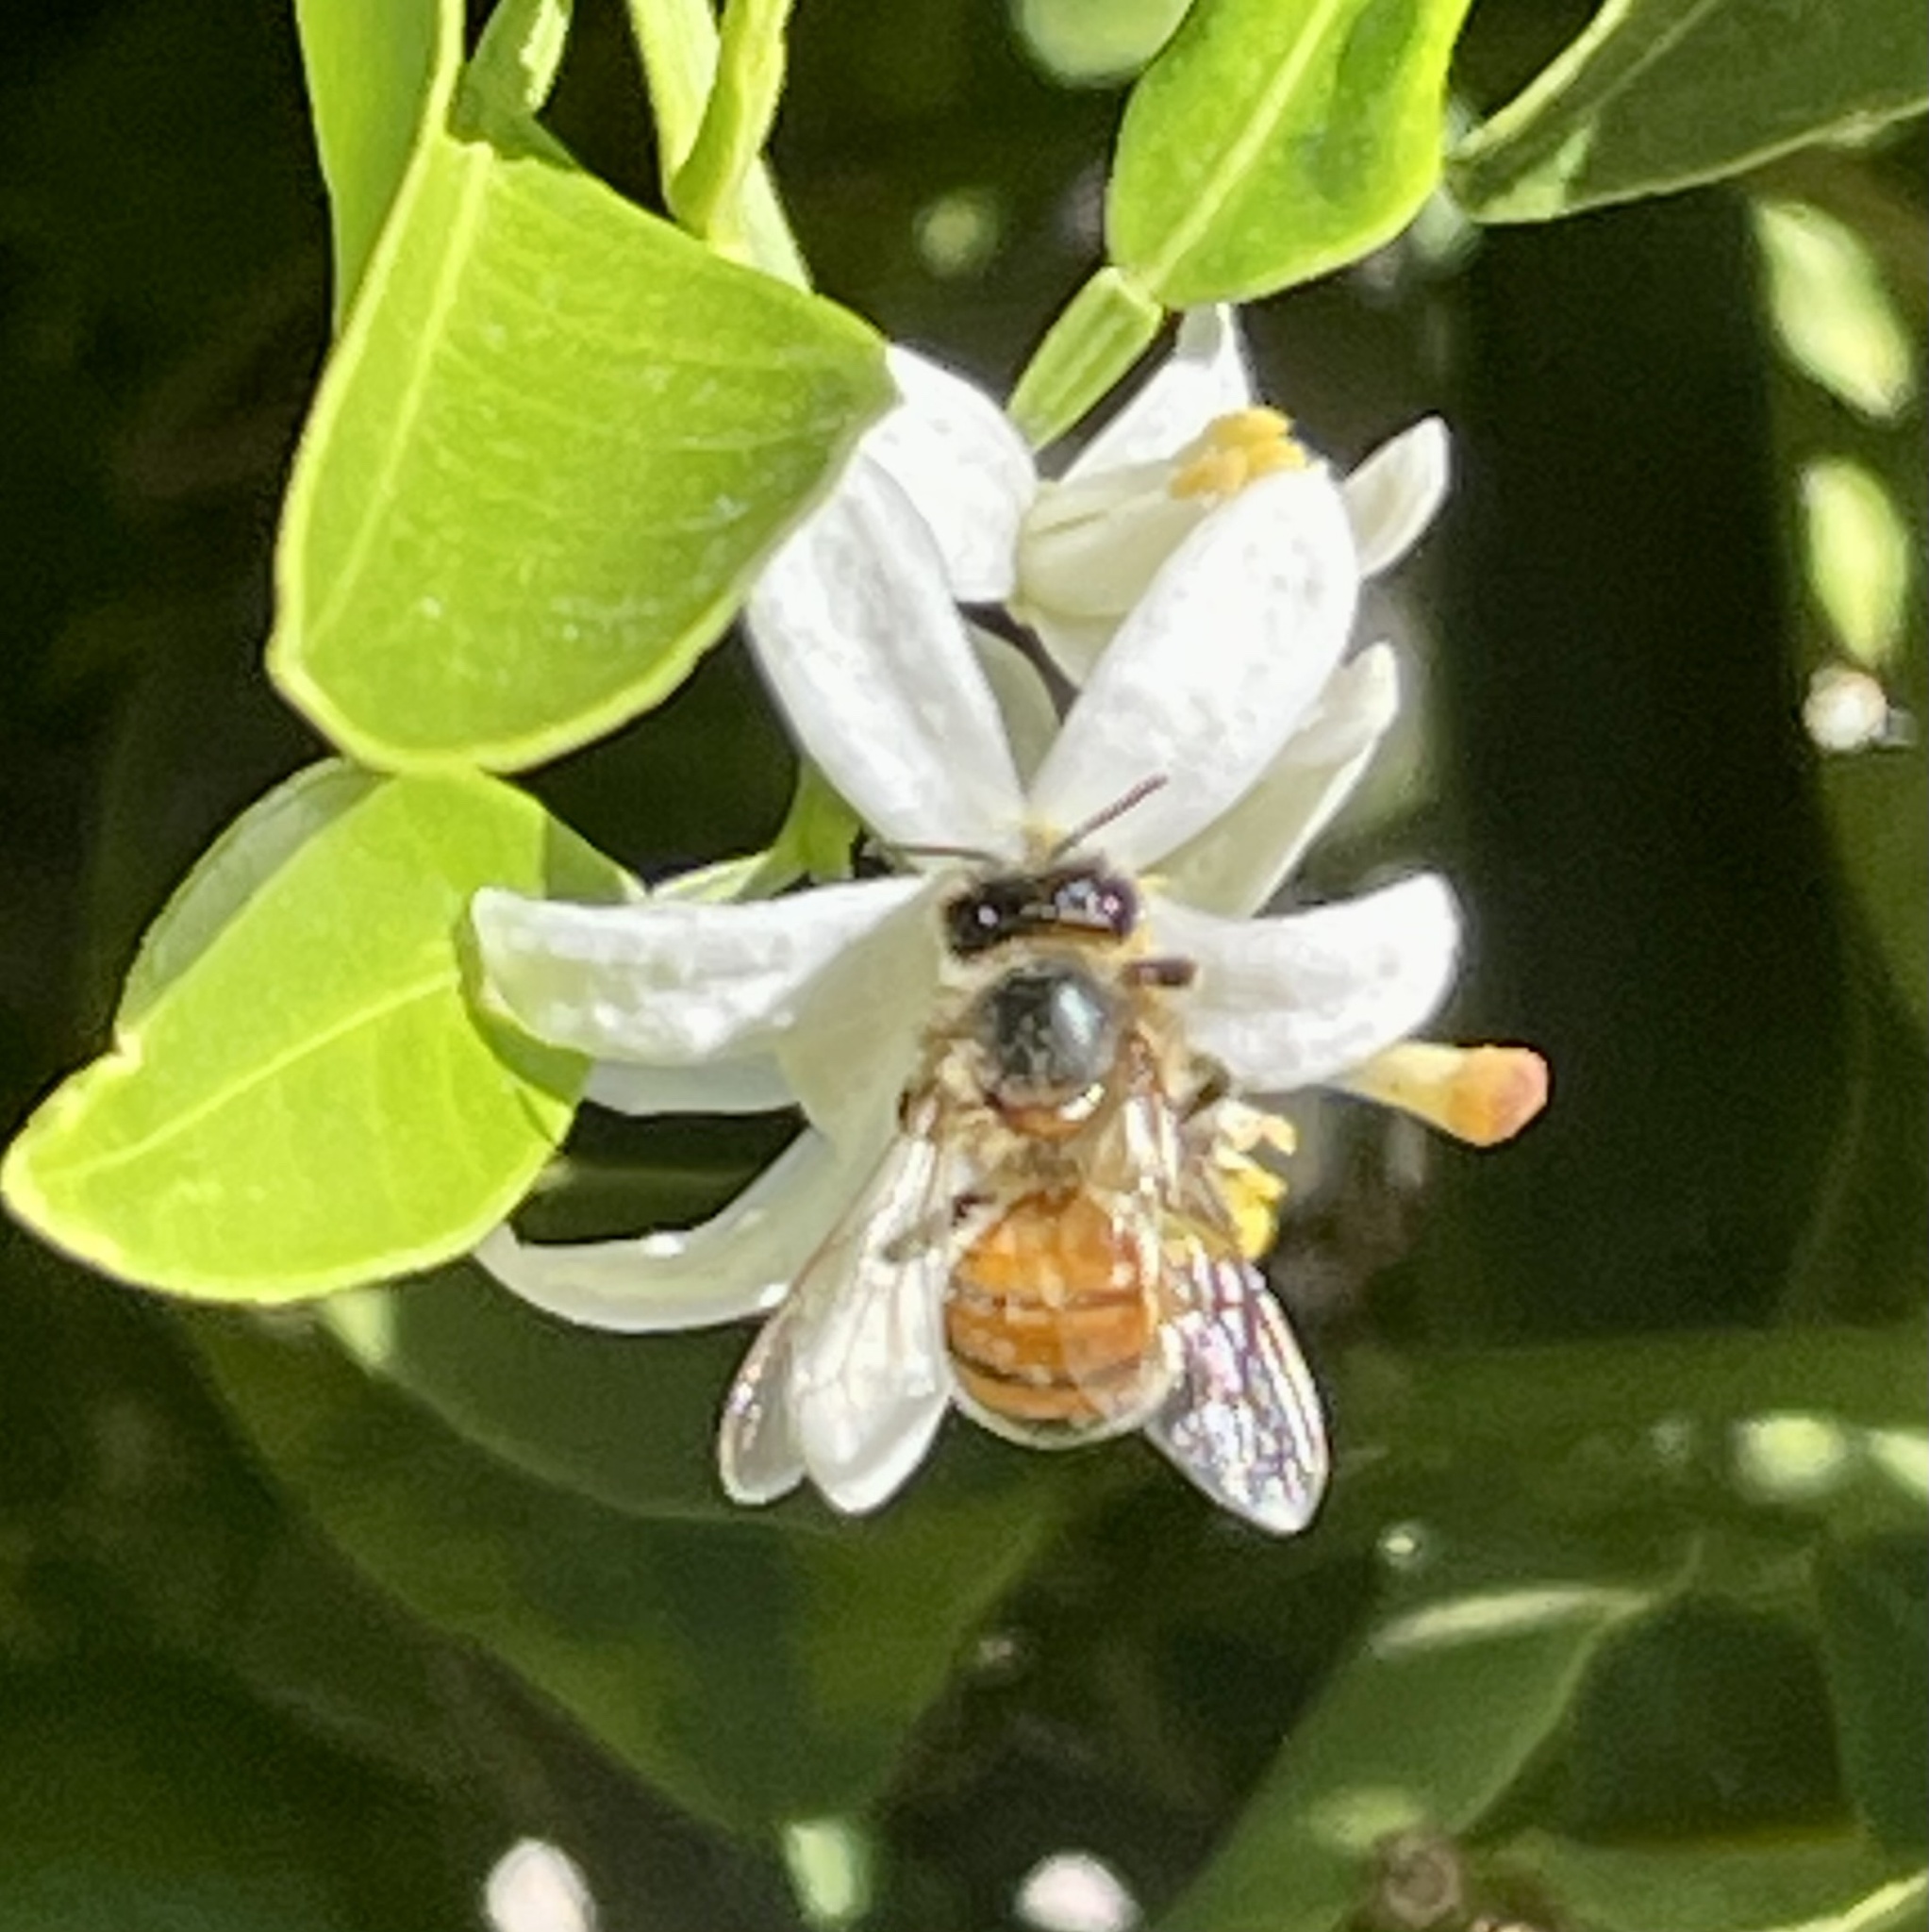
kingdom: Animalia
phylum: Arthropoda
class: Insecta
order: Hymenoptera
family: Apidae
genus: Apis
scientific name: Apis mellifera
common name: Honey bee
